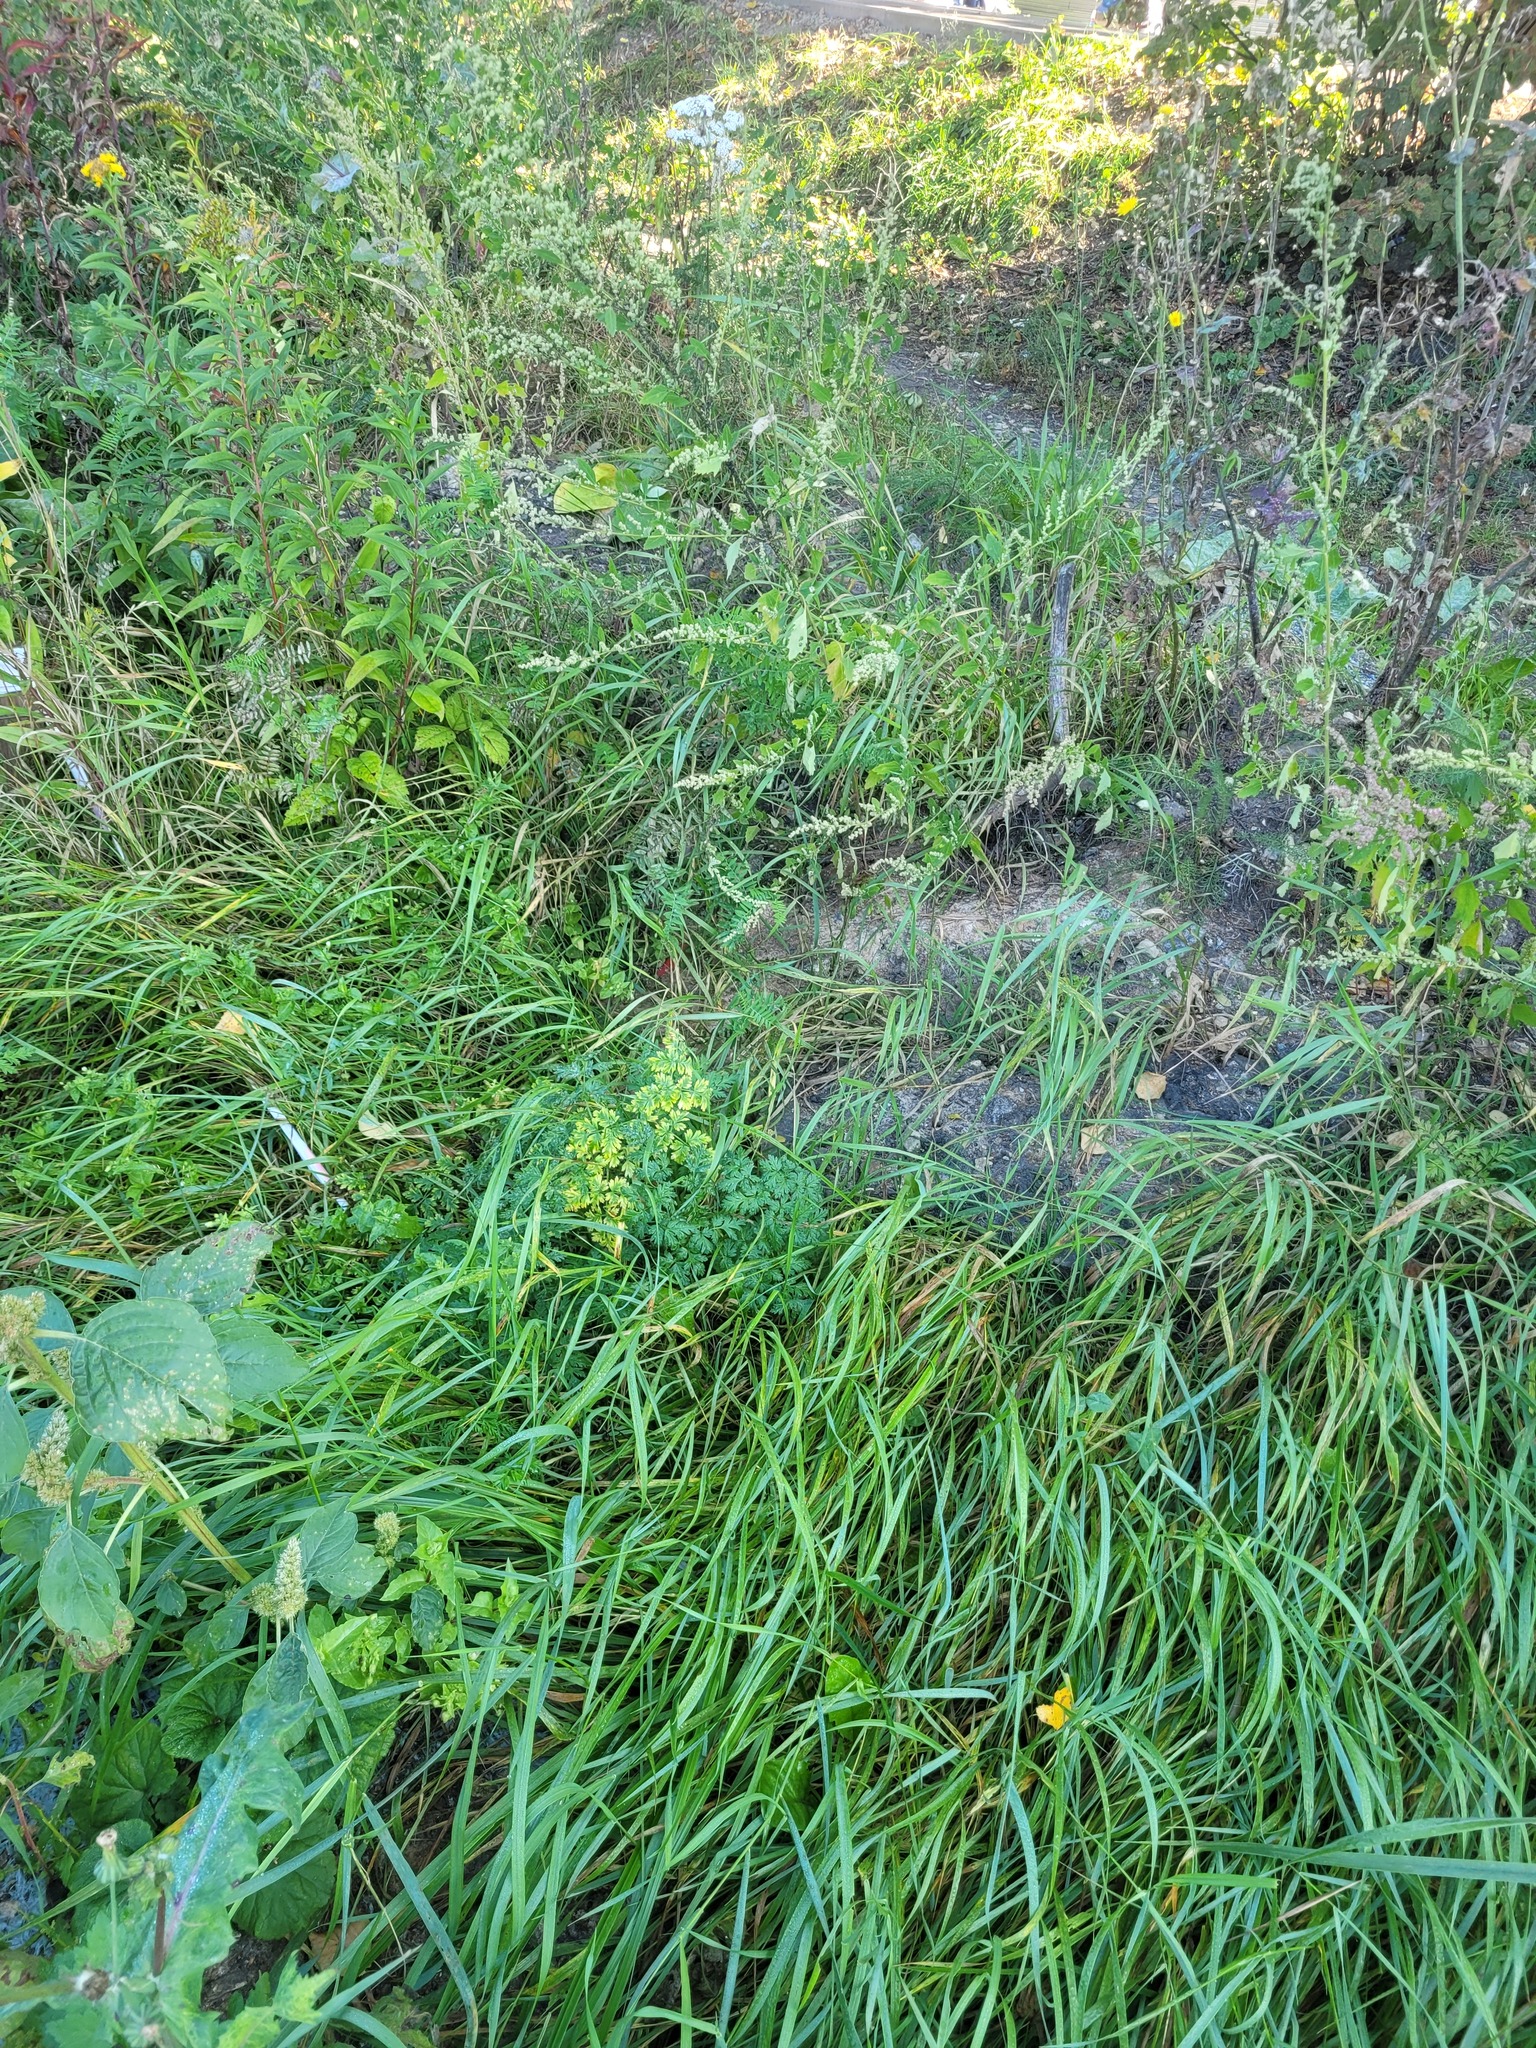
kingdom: Plantae
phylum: Tracheophyta
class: Magnoliopsida
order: Apiales
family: Apiaceae
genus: Anthriscus
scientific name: Anthriscus sylvestris
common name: Cow parsley
